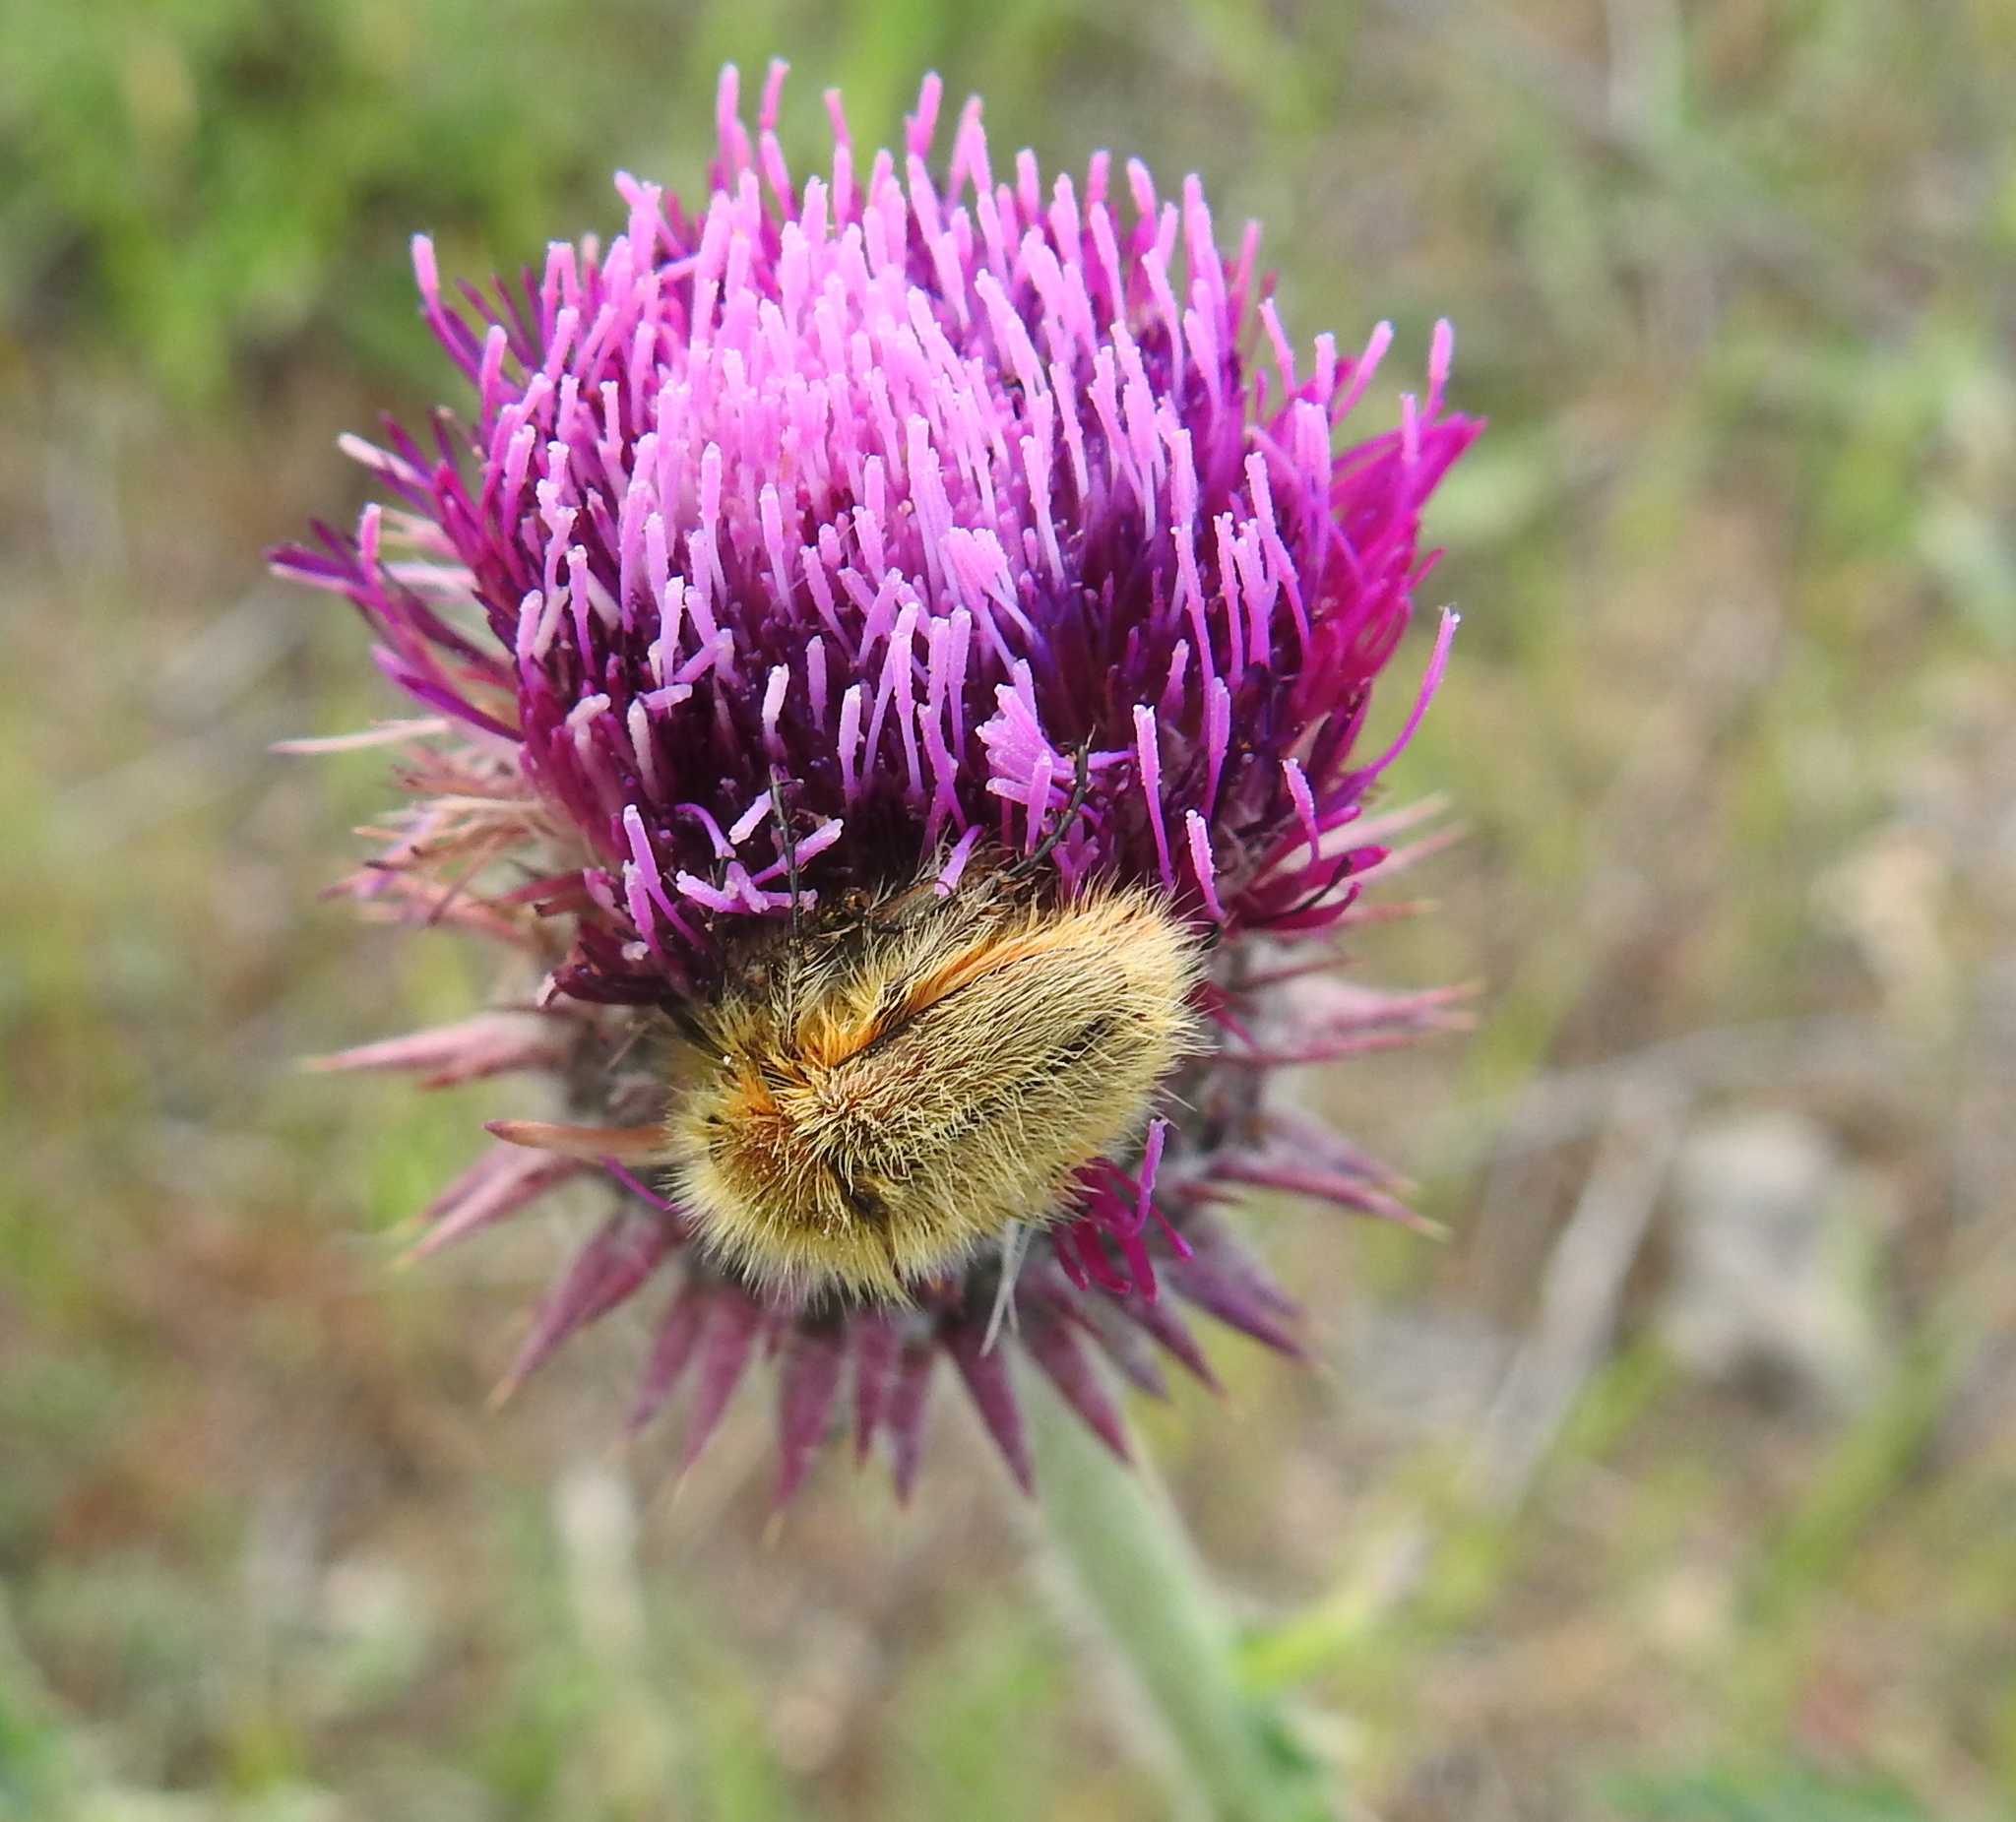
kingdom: Animalia
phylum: Arthropoda
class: Insecta
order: Coleoptera
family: Glaphyridae
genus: Pygopleurus
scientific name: Pygopleurus vulpes
